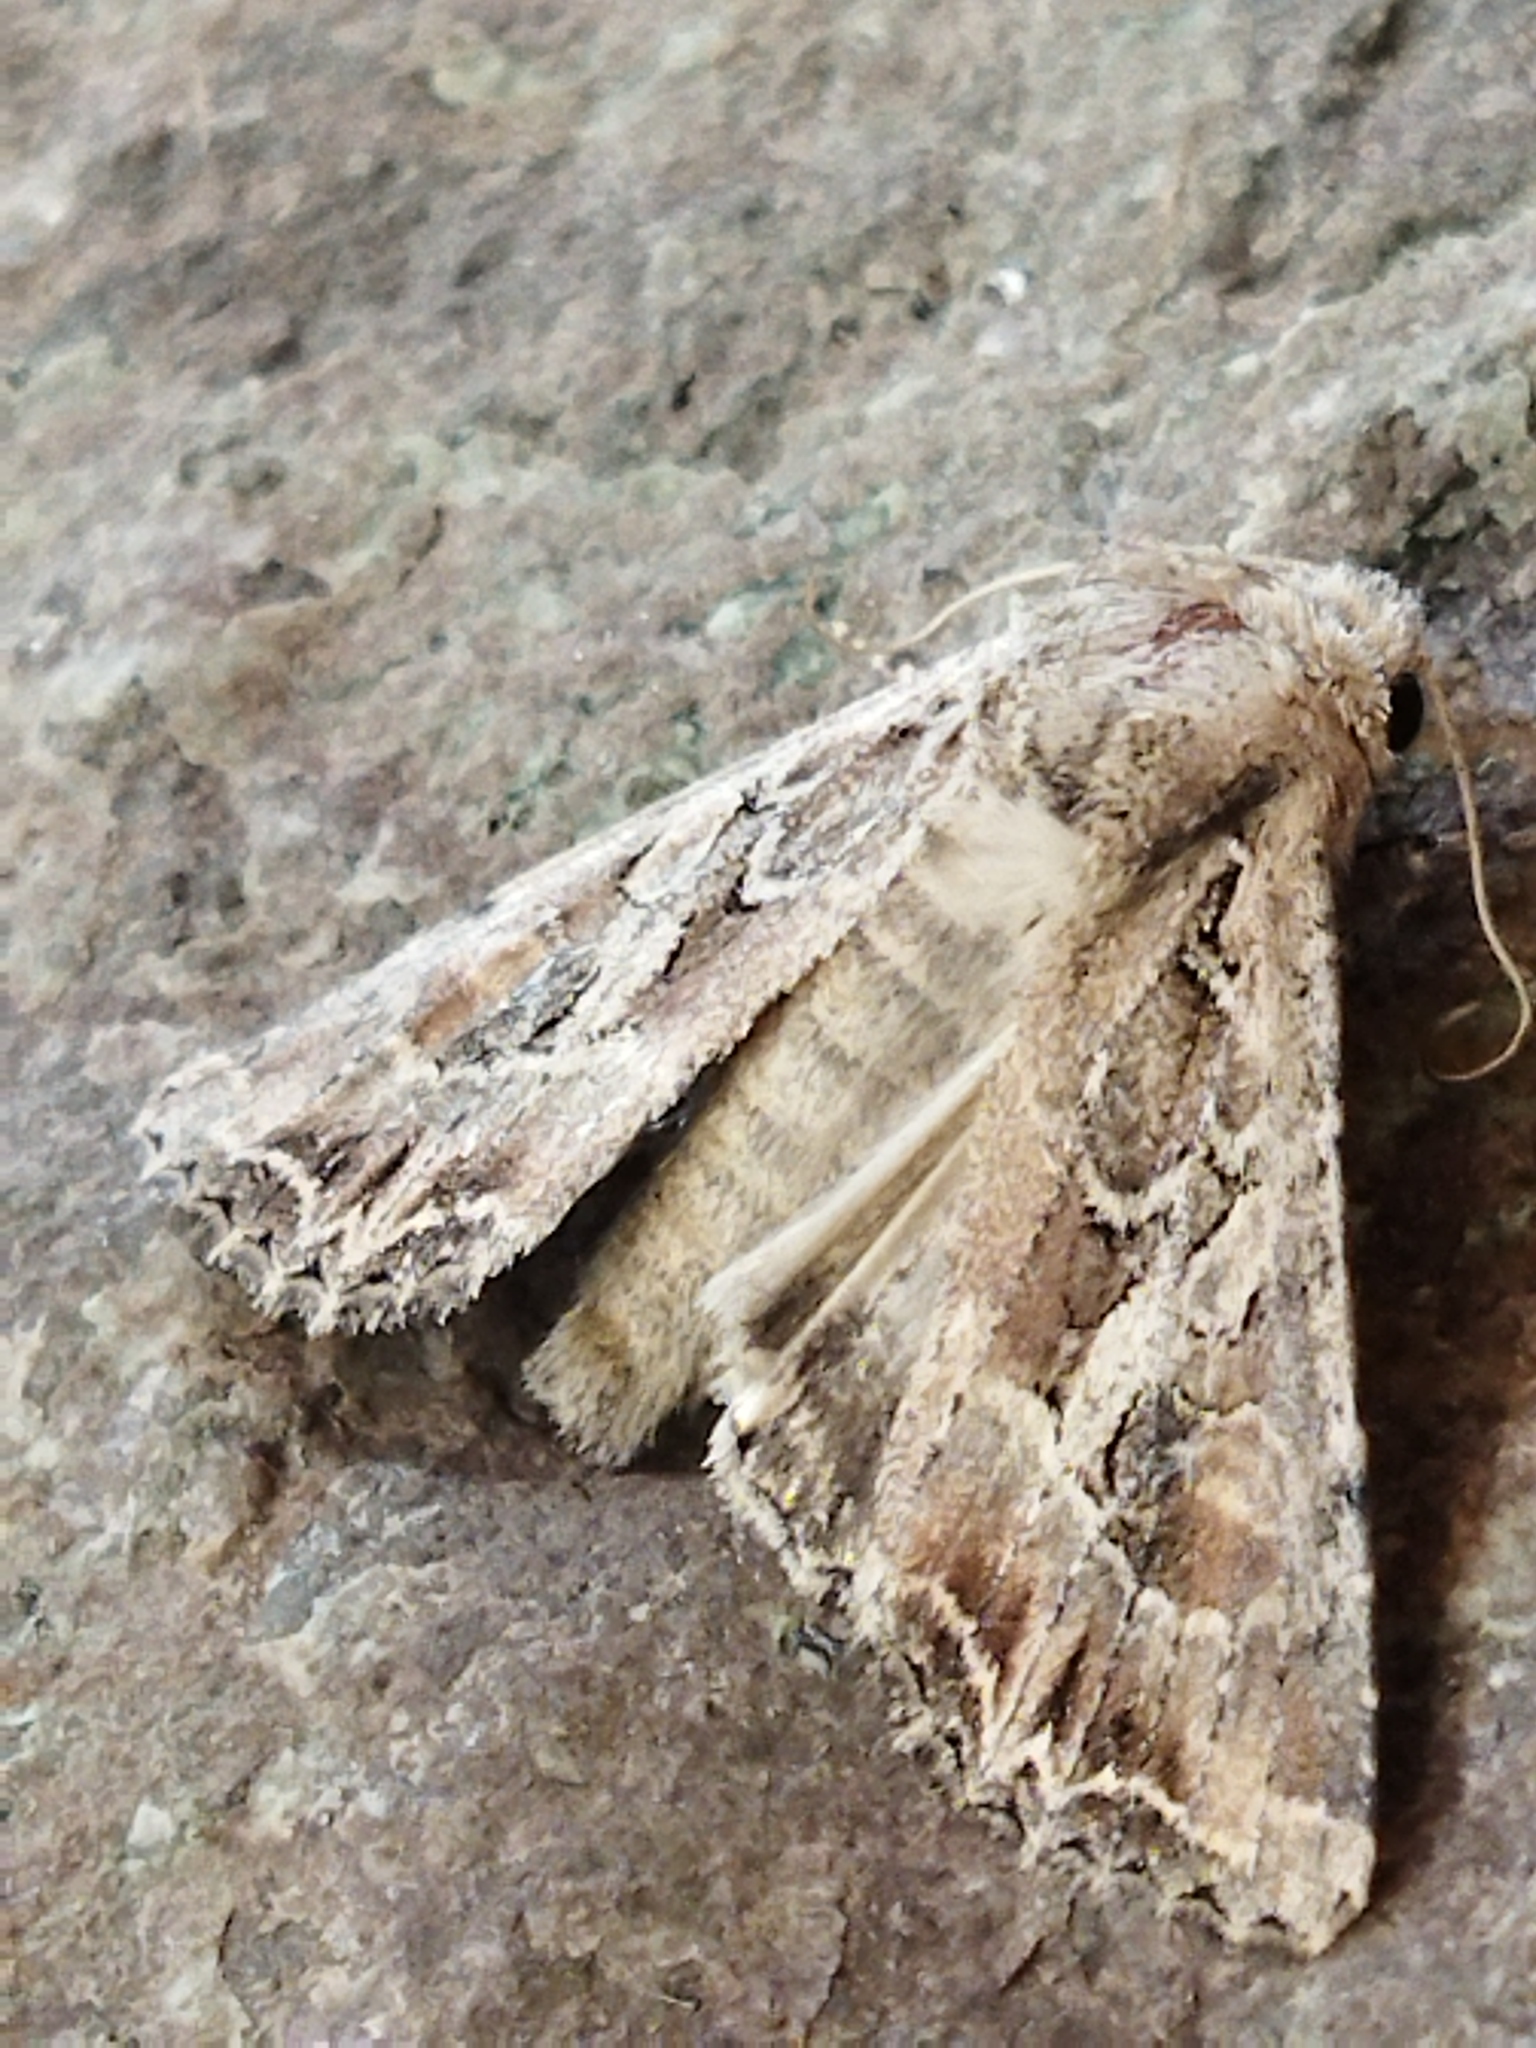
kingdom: Animalia
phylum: Arthropoda
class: Insecta
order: Lepidoptera
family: Noctuidae
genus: Lacanobia
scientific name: Lacanobia blenna
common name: Stranger
